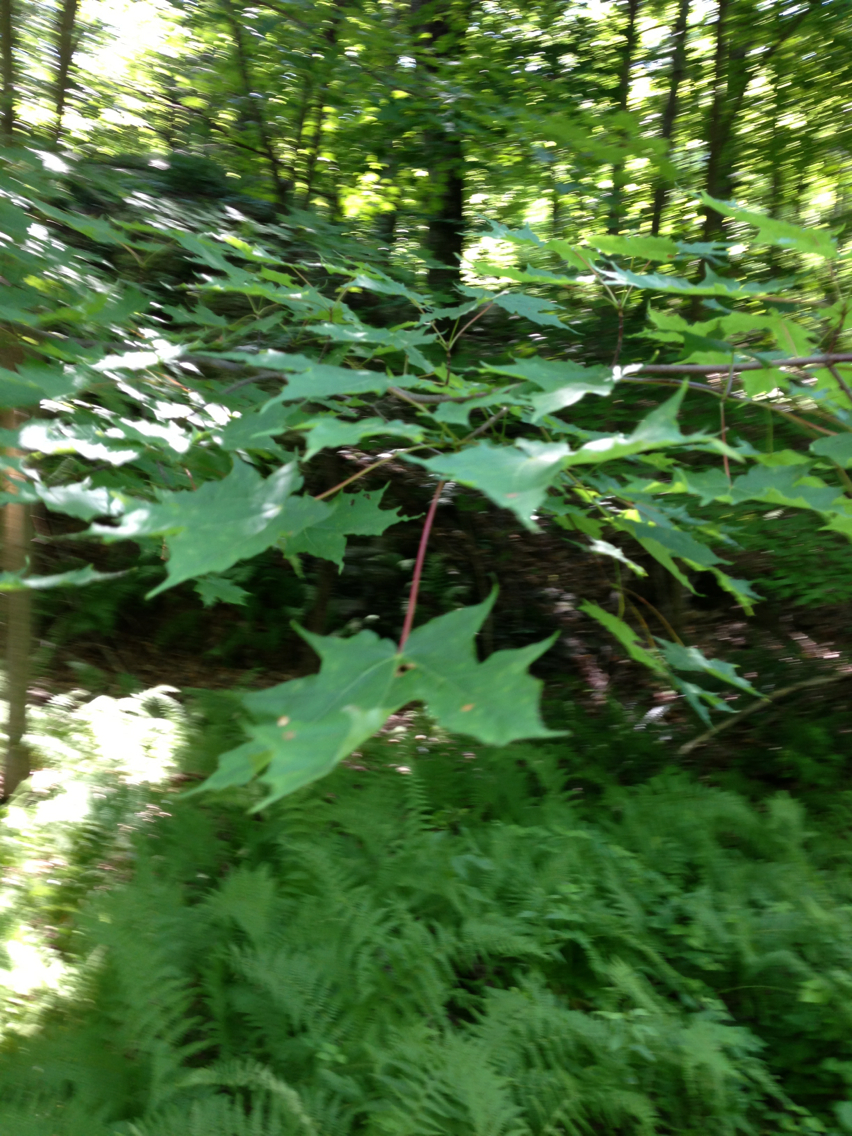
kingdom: Plantae
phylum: Tracheophyta
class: Magnoliopsida
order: Sapindales
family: Sapindaceae
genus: Acer
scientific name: Acer saccharum
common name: Sugar maple
